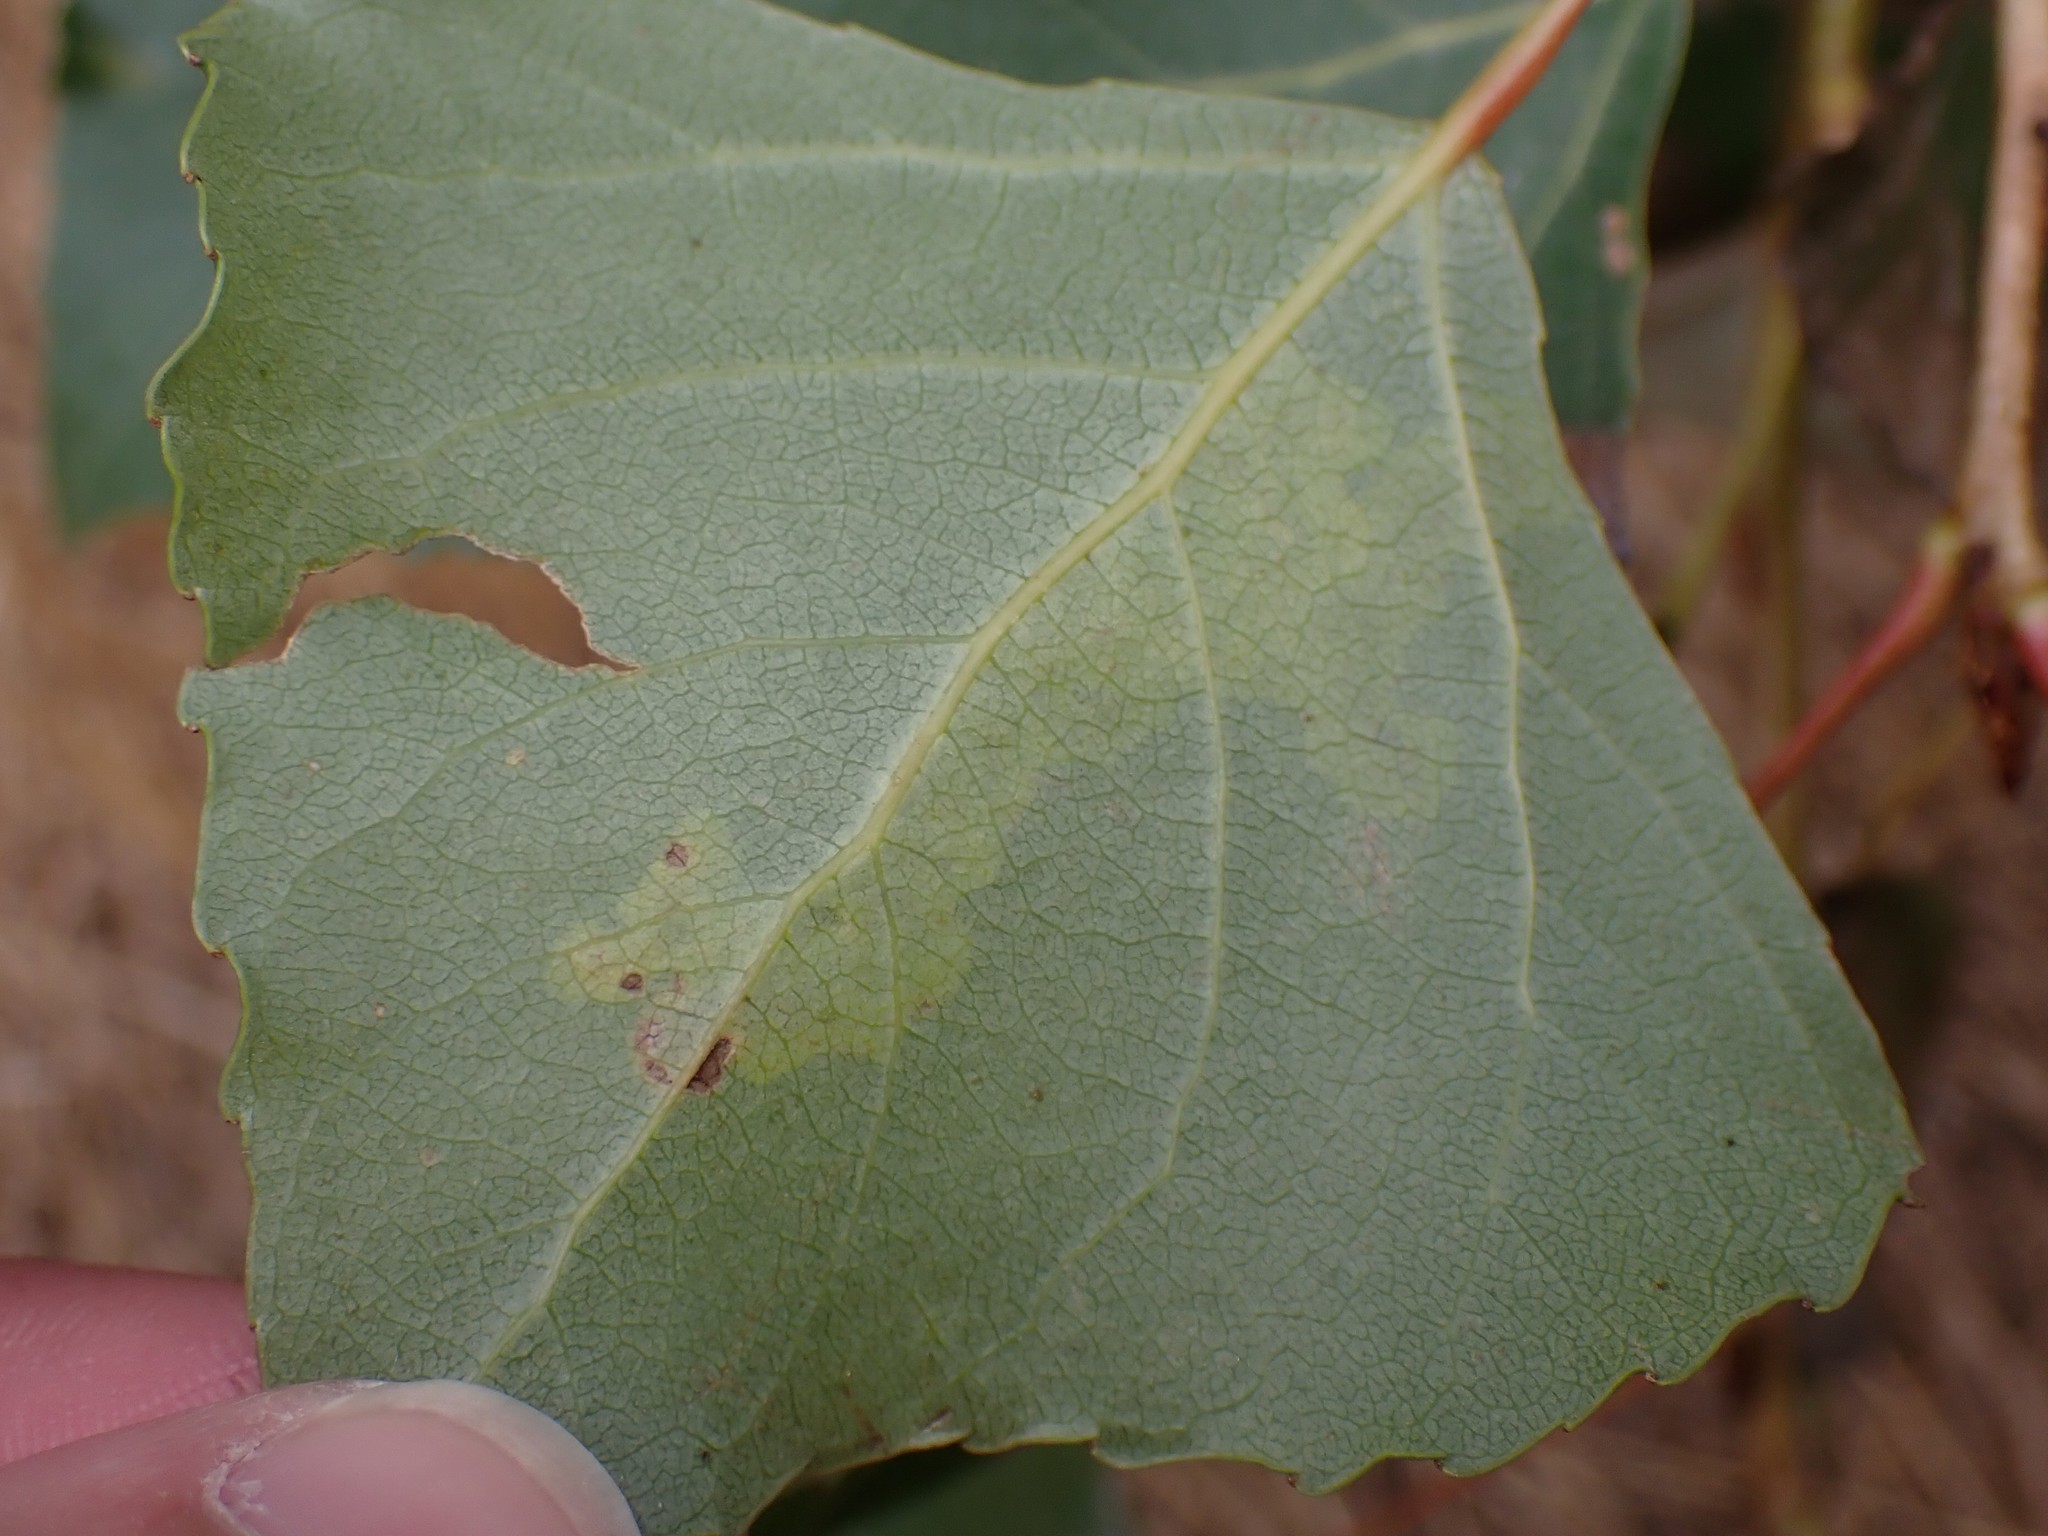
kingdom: Animalia
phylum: Arthropoda
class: Insecta
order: Diptera
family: Agromyzidae
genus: Aulagromyza
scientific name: Aulagromyza populicola
